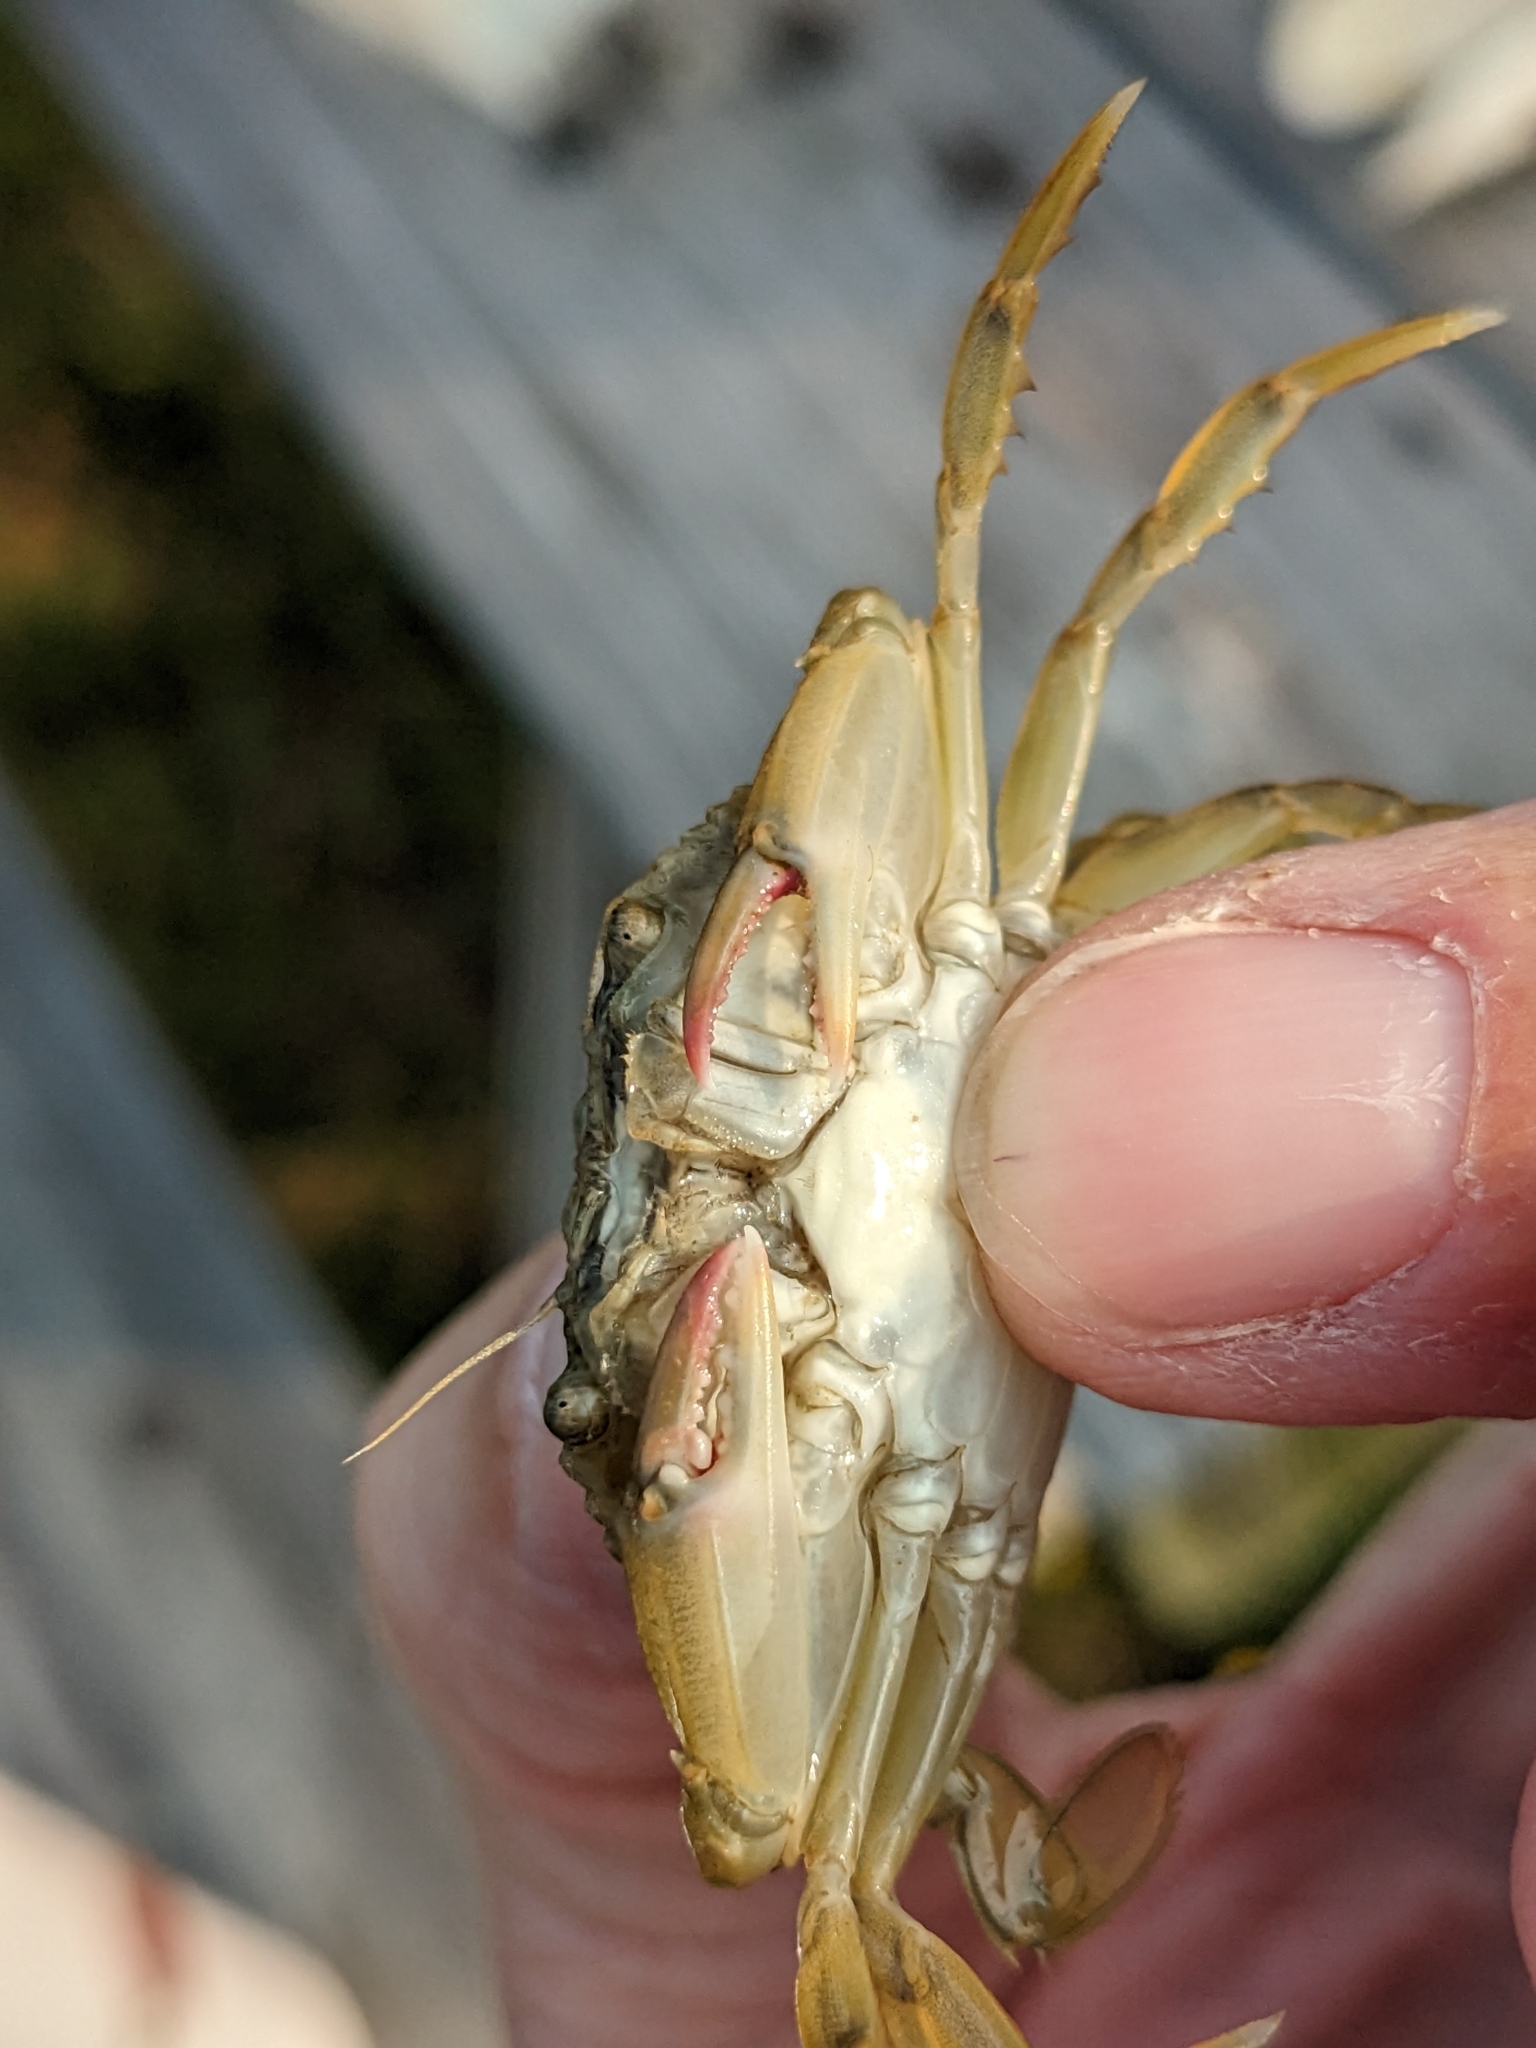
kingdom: Animalia
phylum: Arthropoda
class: Malacostraca
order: Decapoda
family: Portunidae
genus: Callinectes
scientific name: Callinectes sapidus
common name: Blue crab
